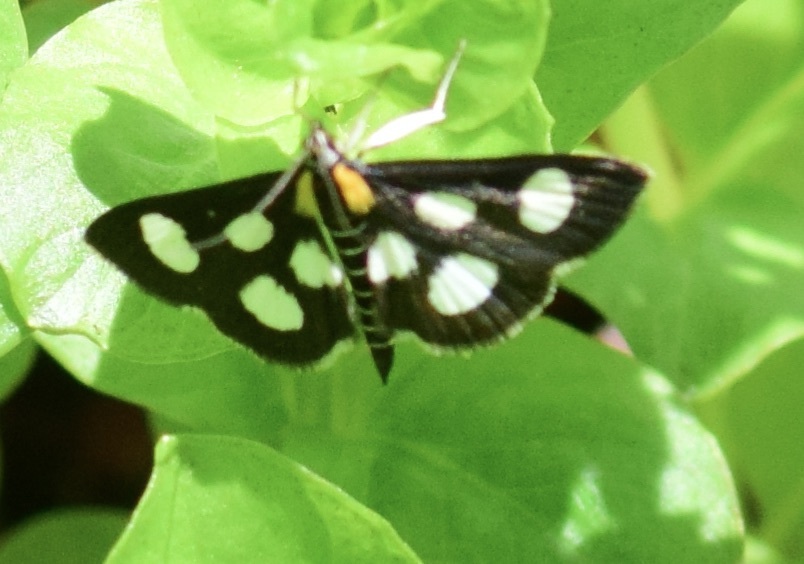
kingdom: Animalia
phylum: Arthropoda
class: Insecta
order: Lepidoptera
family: Crambidae
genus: Anania
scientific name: Anania funebris
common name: White-spotted sable moth
